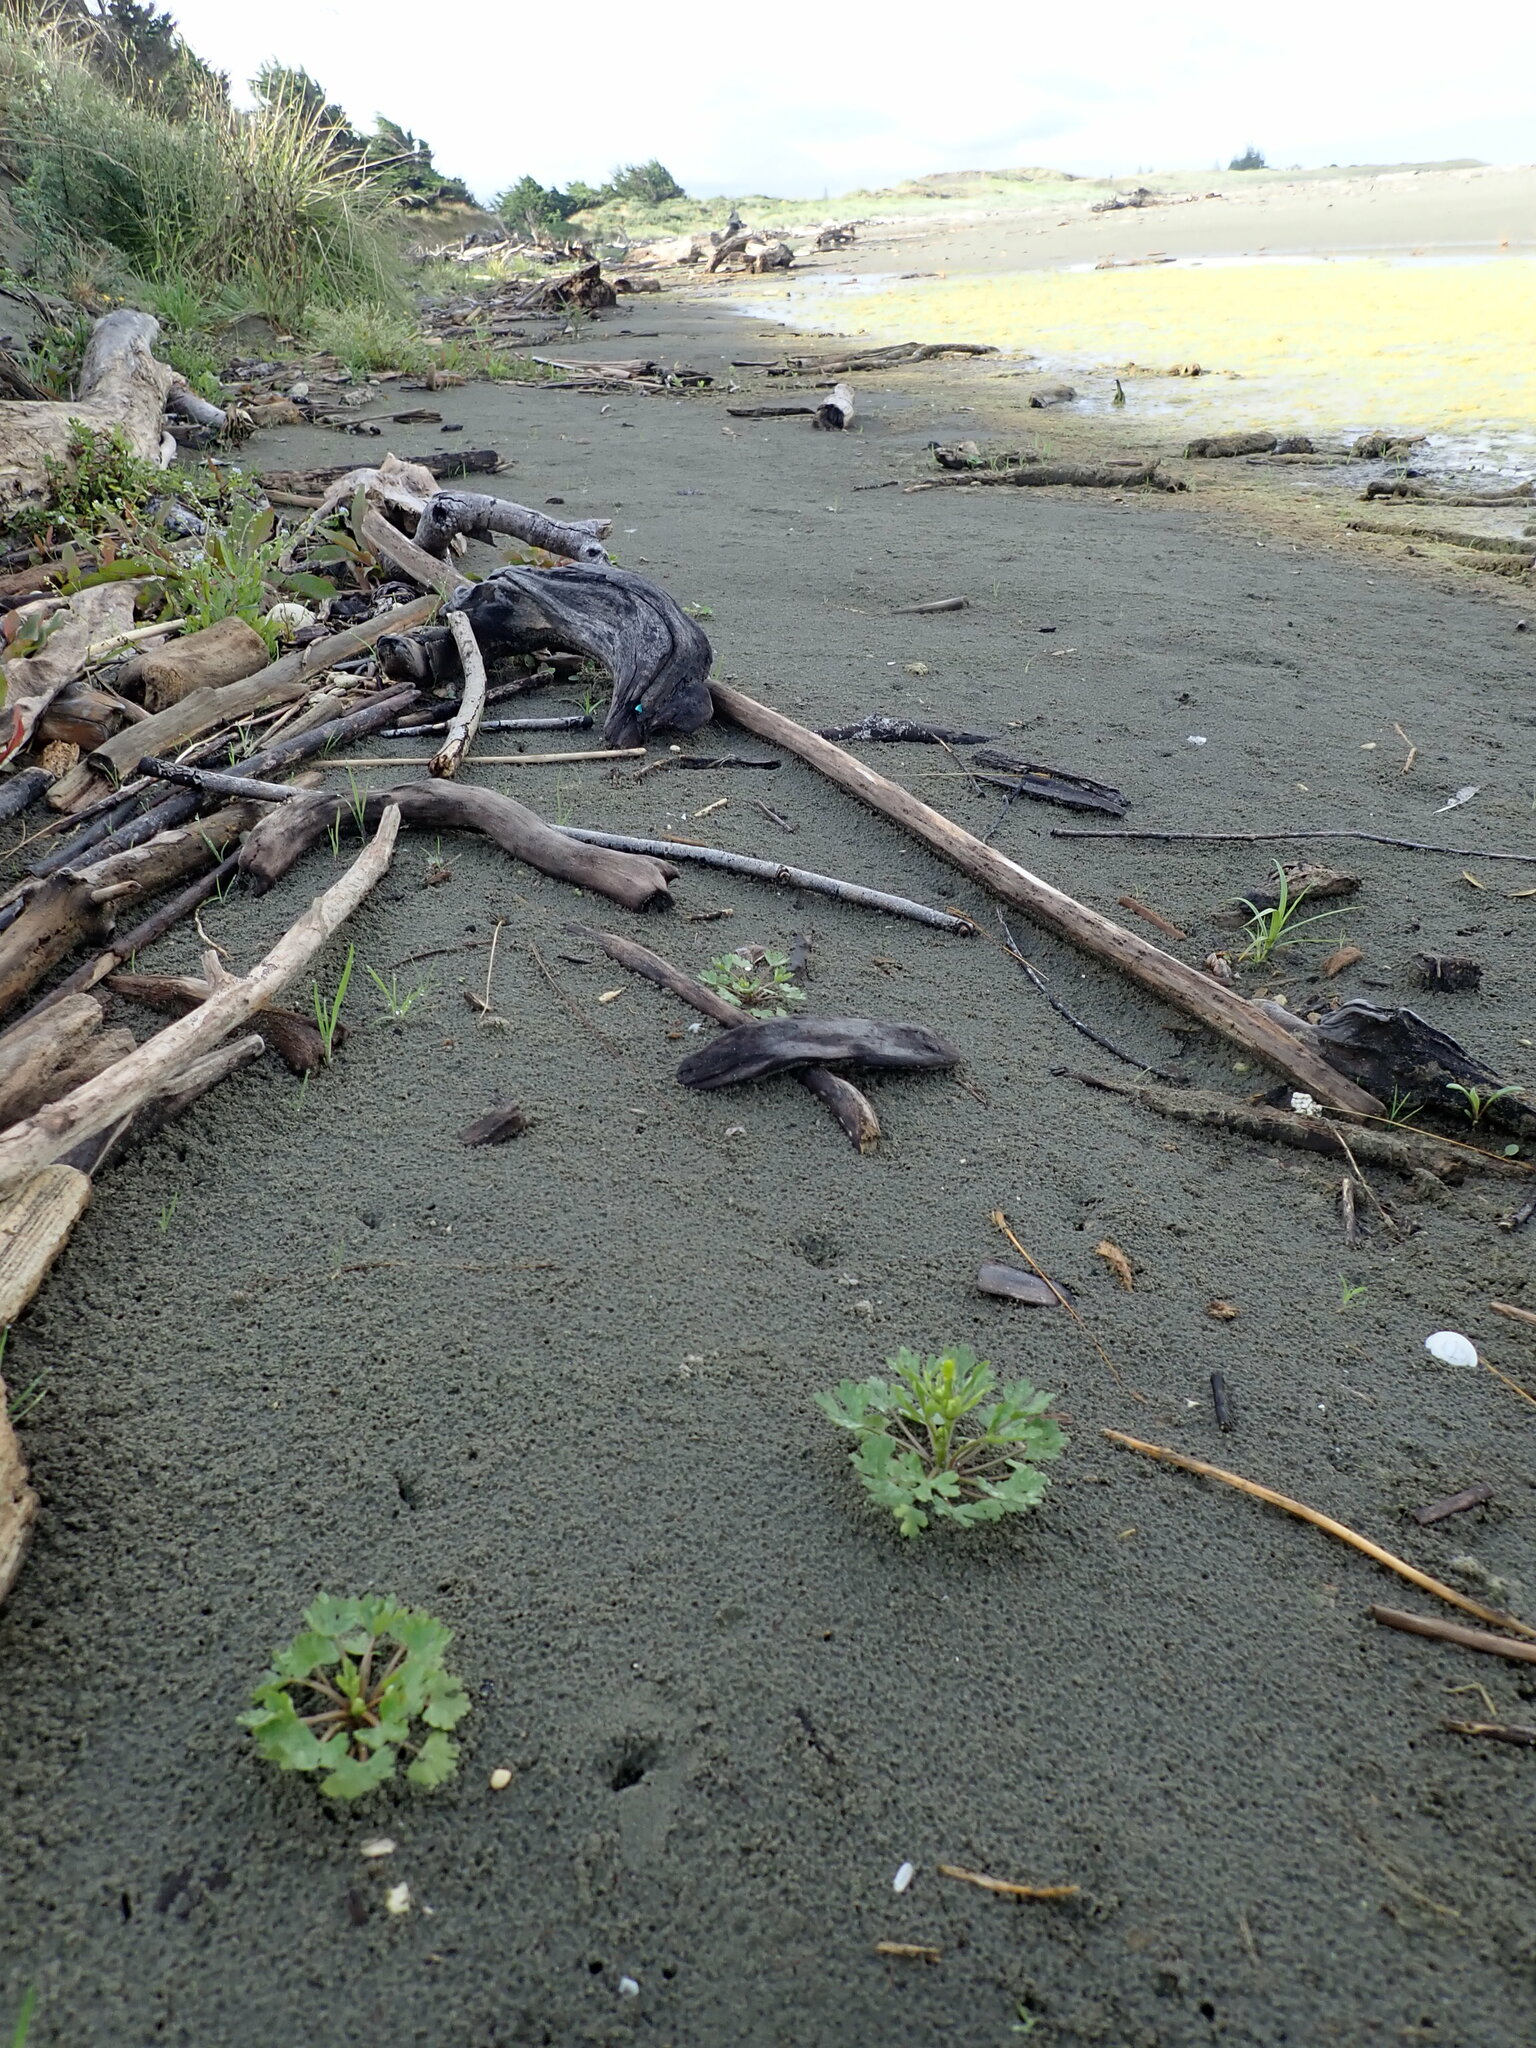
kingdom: Plantae
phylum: Tracheophyta
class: Magnoliopsida
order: Ranunculales
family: Ranunculaceae
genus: Ranunculus
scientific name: Ranunculus sceleratus
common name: Celery-leaved buttercup
